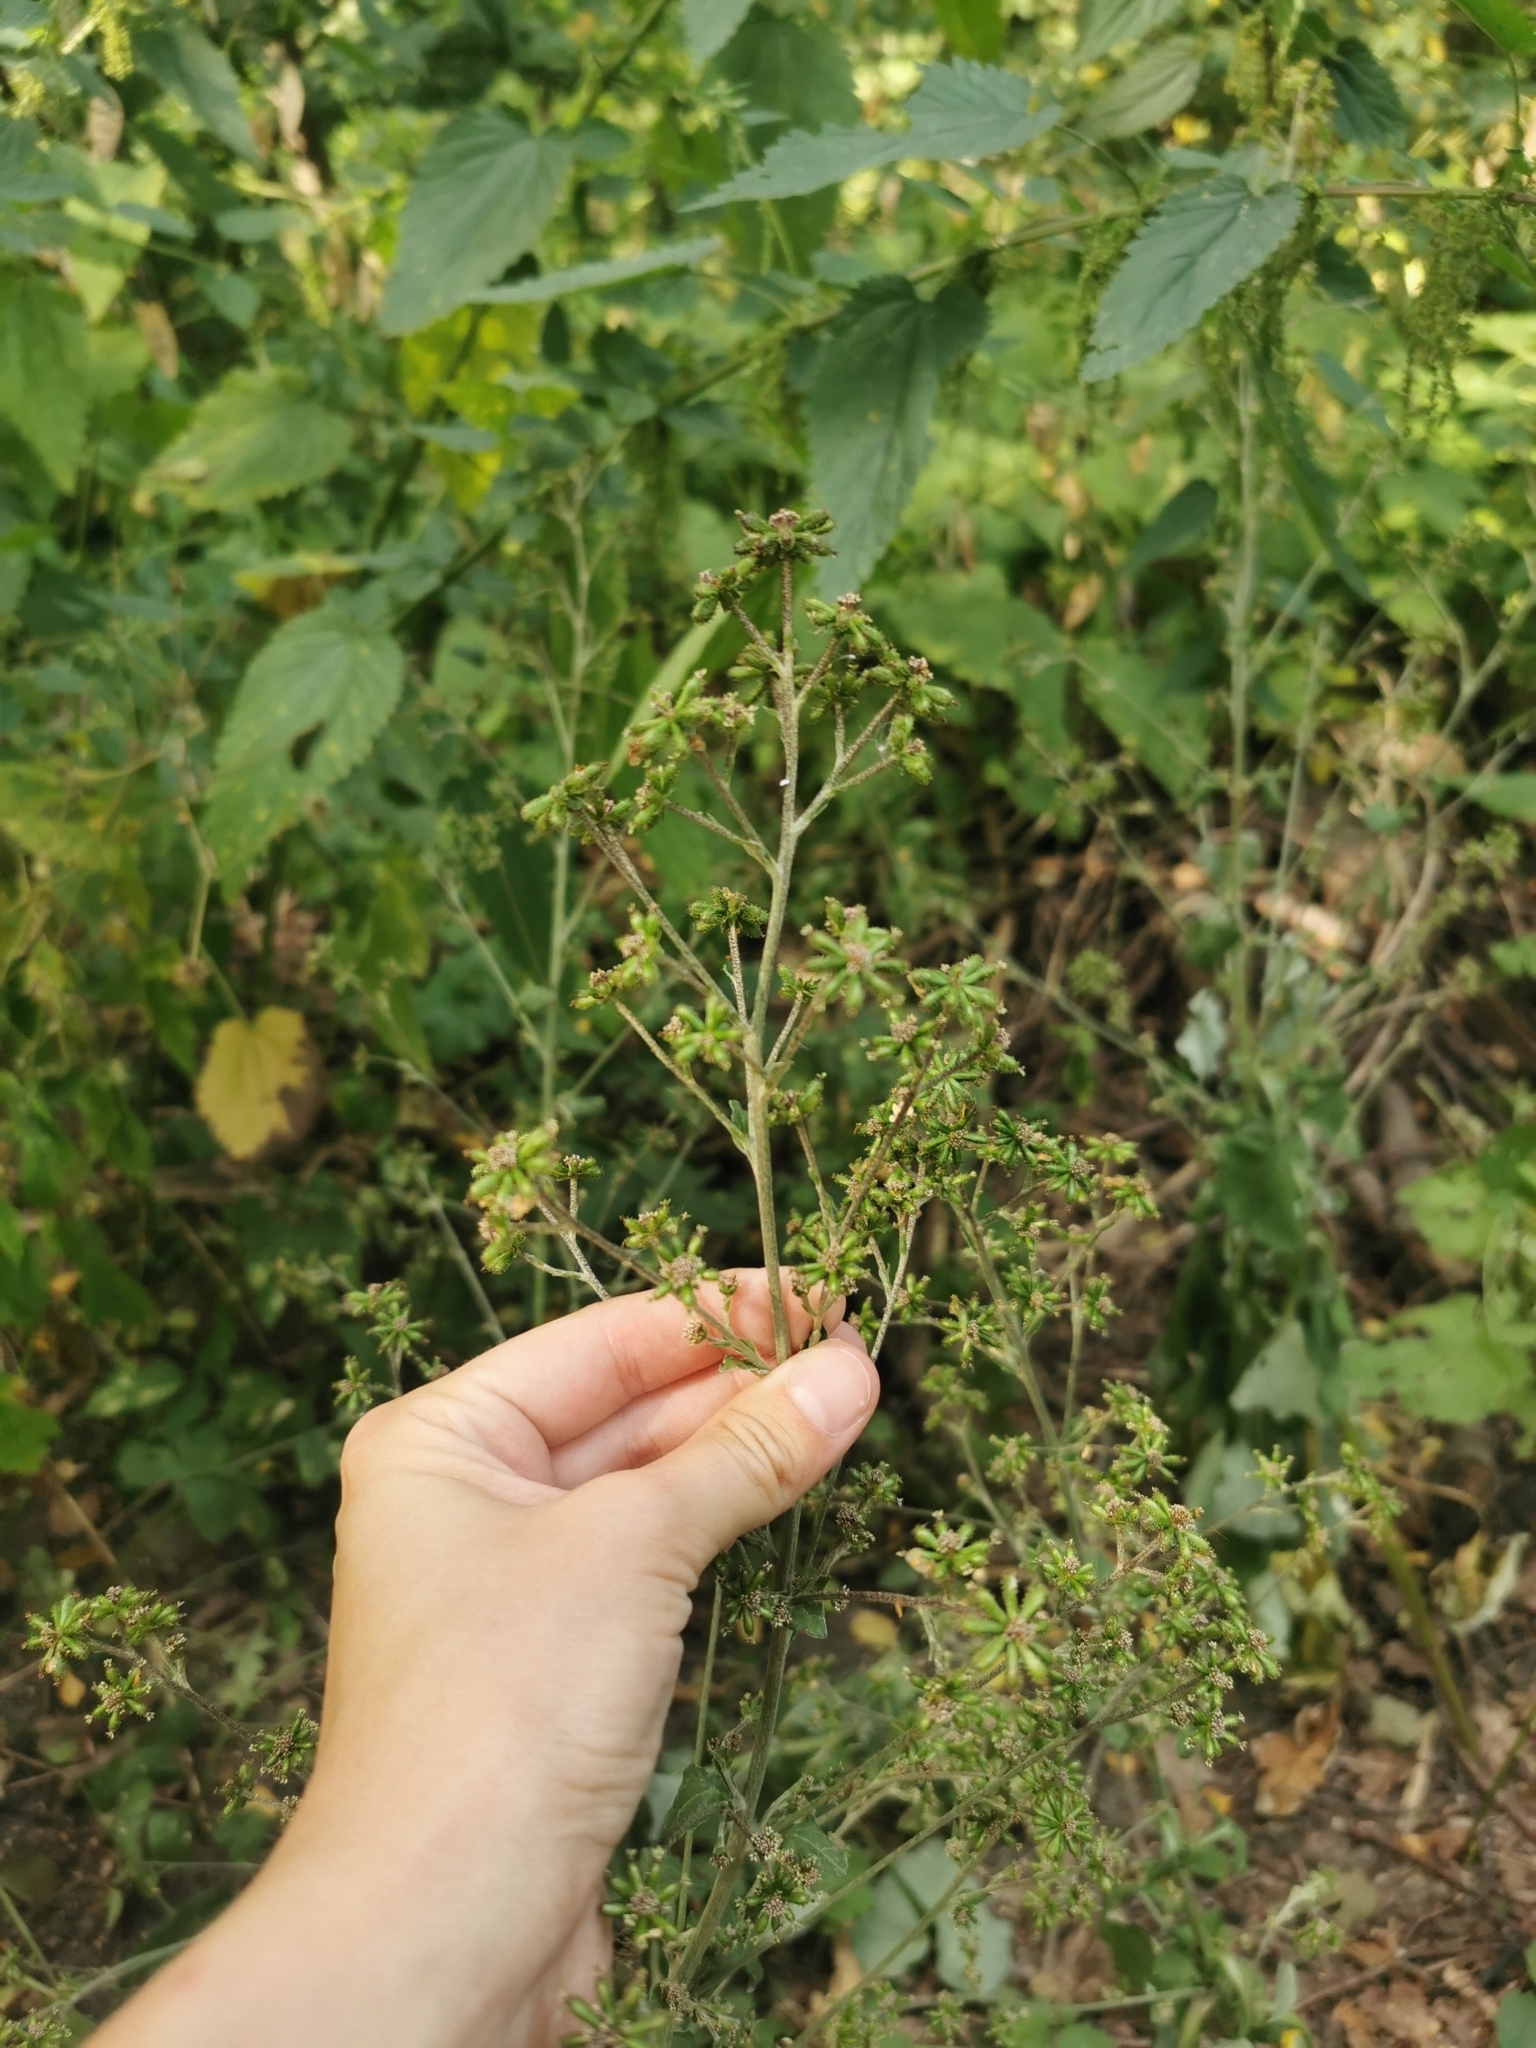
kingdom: Plantae
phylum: Tracheophyta
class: Magnoliopsida
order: Asterales
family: Asteraceae
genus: Adenocaulon
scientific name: Adenocaulon himalaicum
